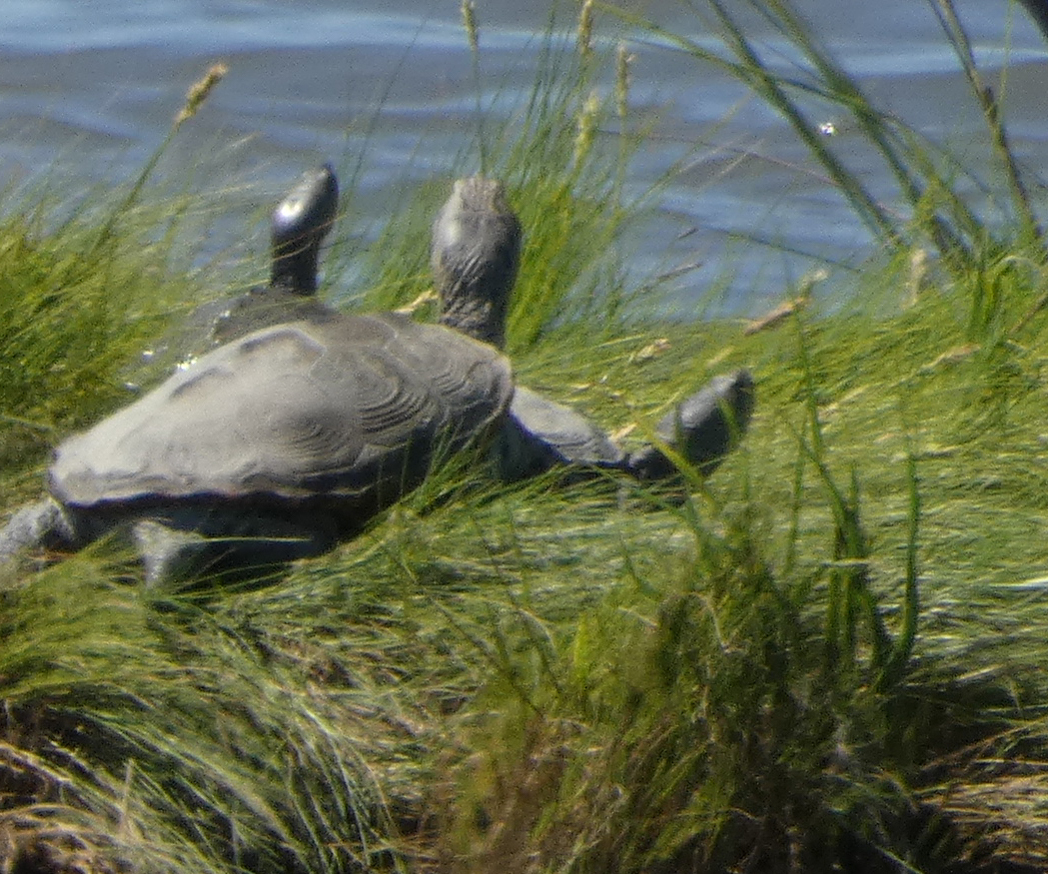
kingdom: Animalia
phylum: Chordata
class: Testudines
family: Emydidae
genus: Malaclemys
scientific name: Malaclemys terrapin
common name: Diamondback terrapin
